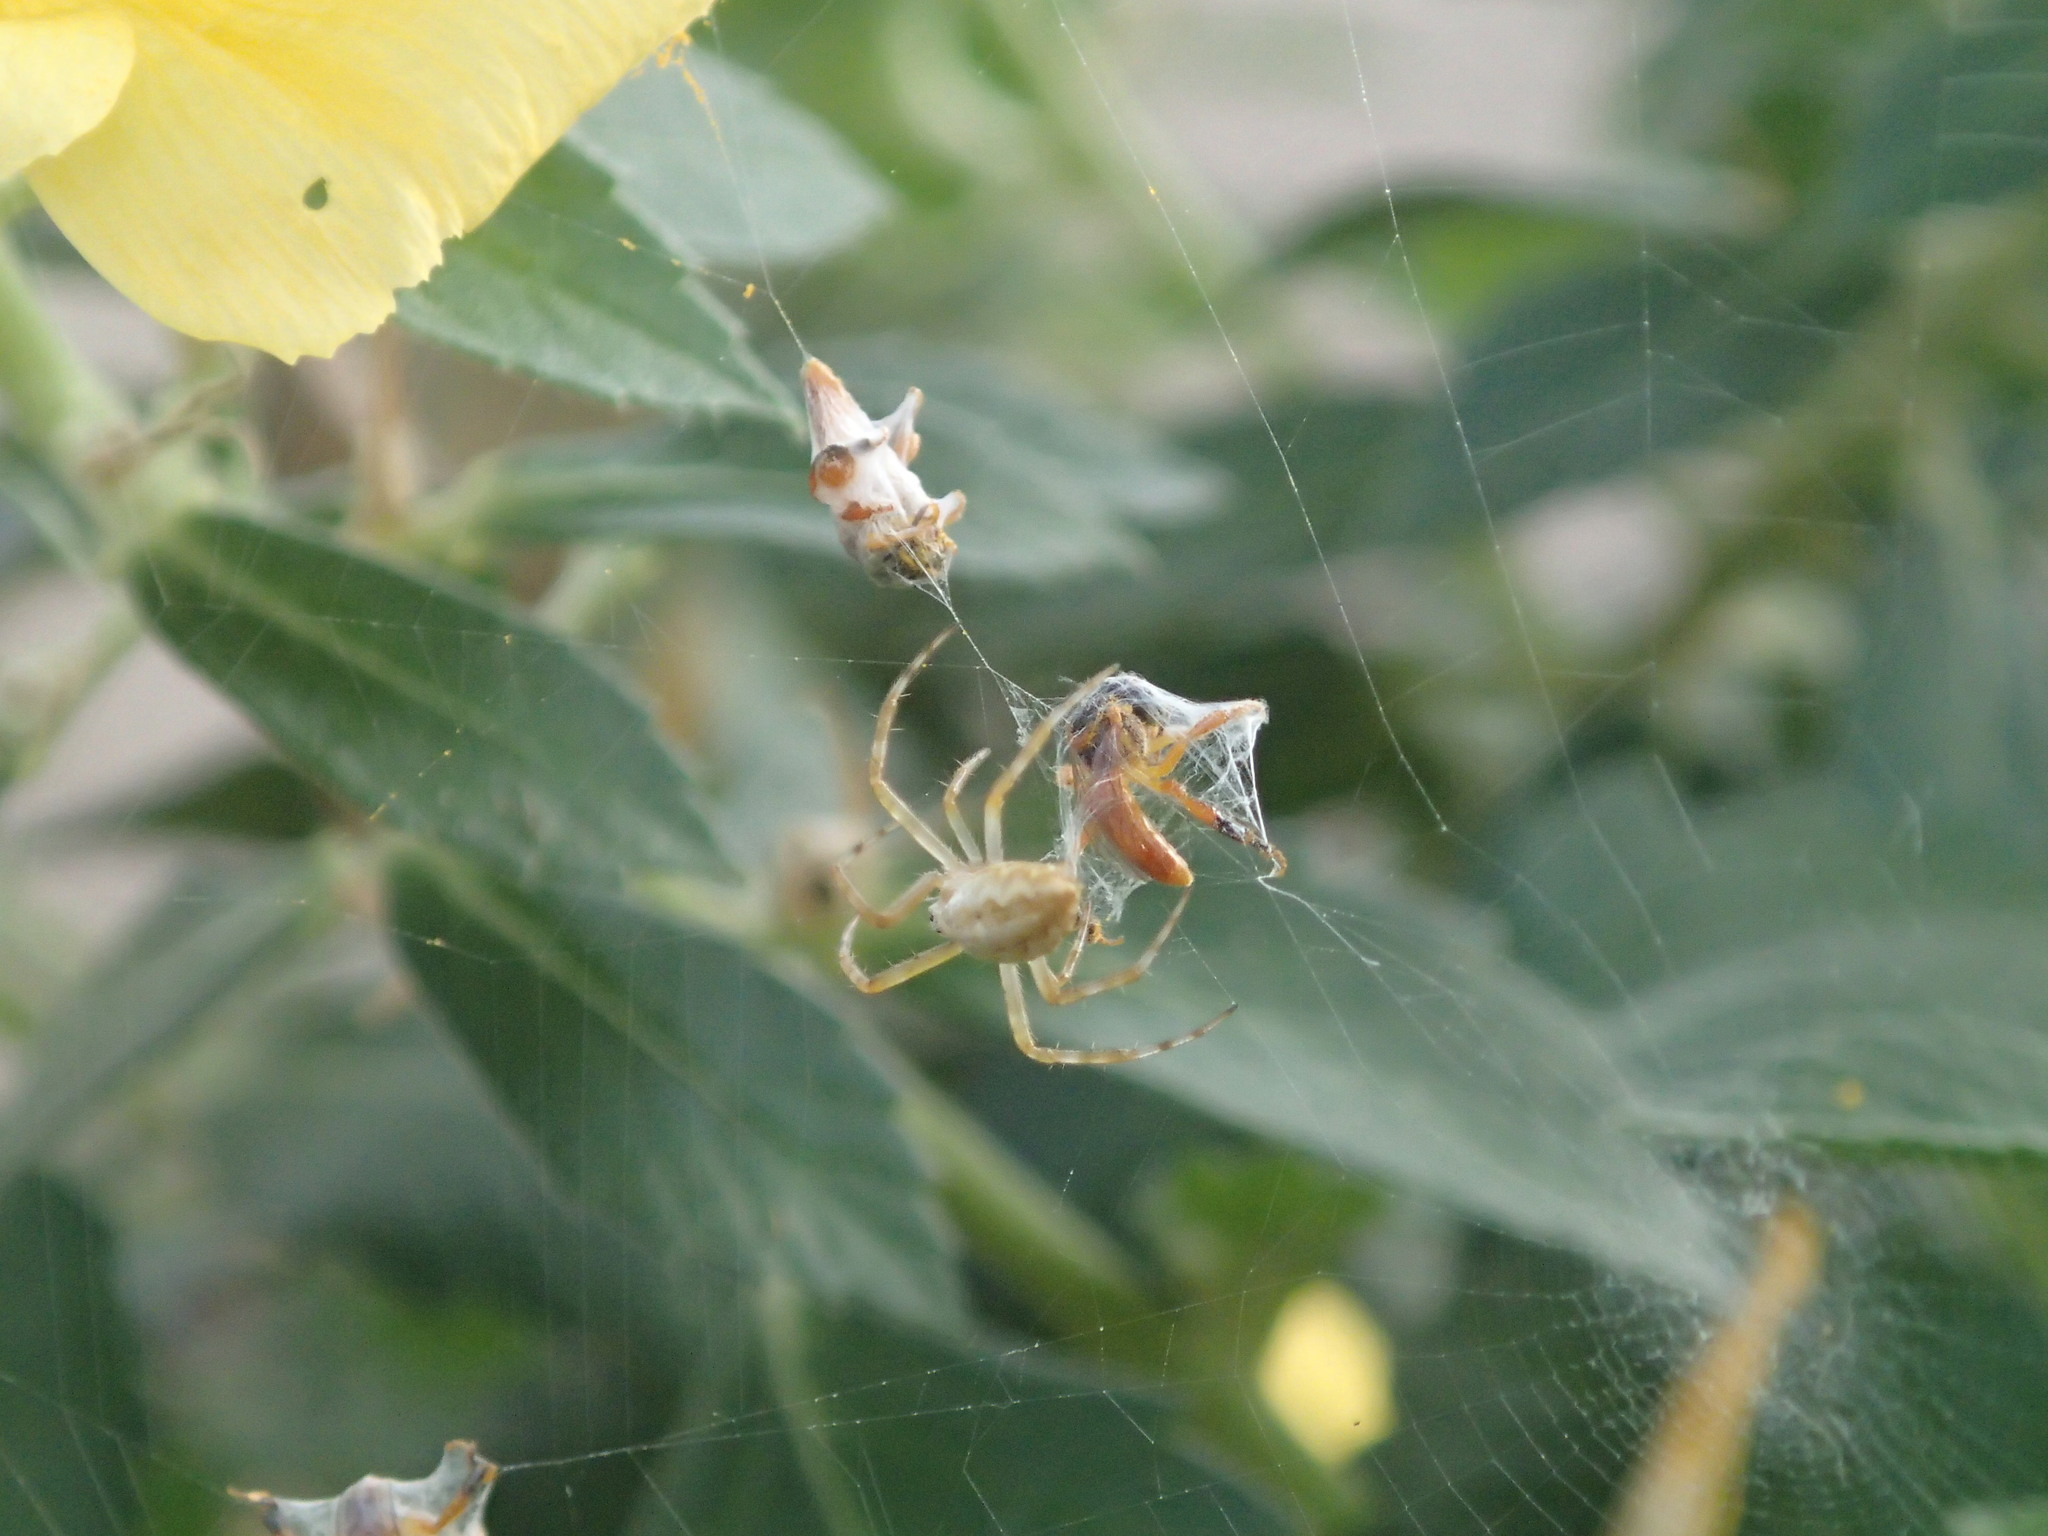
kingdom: Animalia
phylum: Arthropoda
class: Arachnida
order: Araneae
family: Araneidae
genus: Argiope
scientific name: Argiope argentata
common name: Orb weavers
